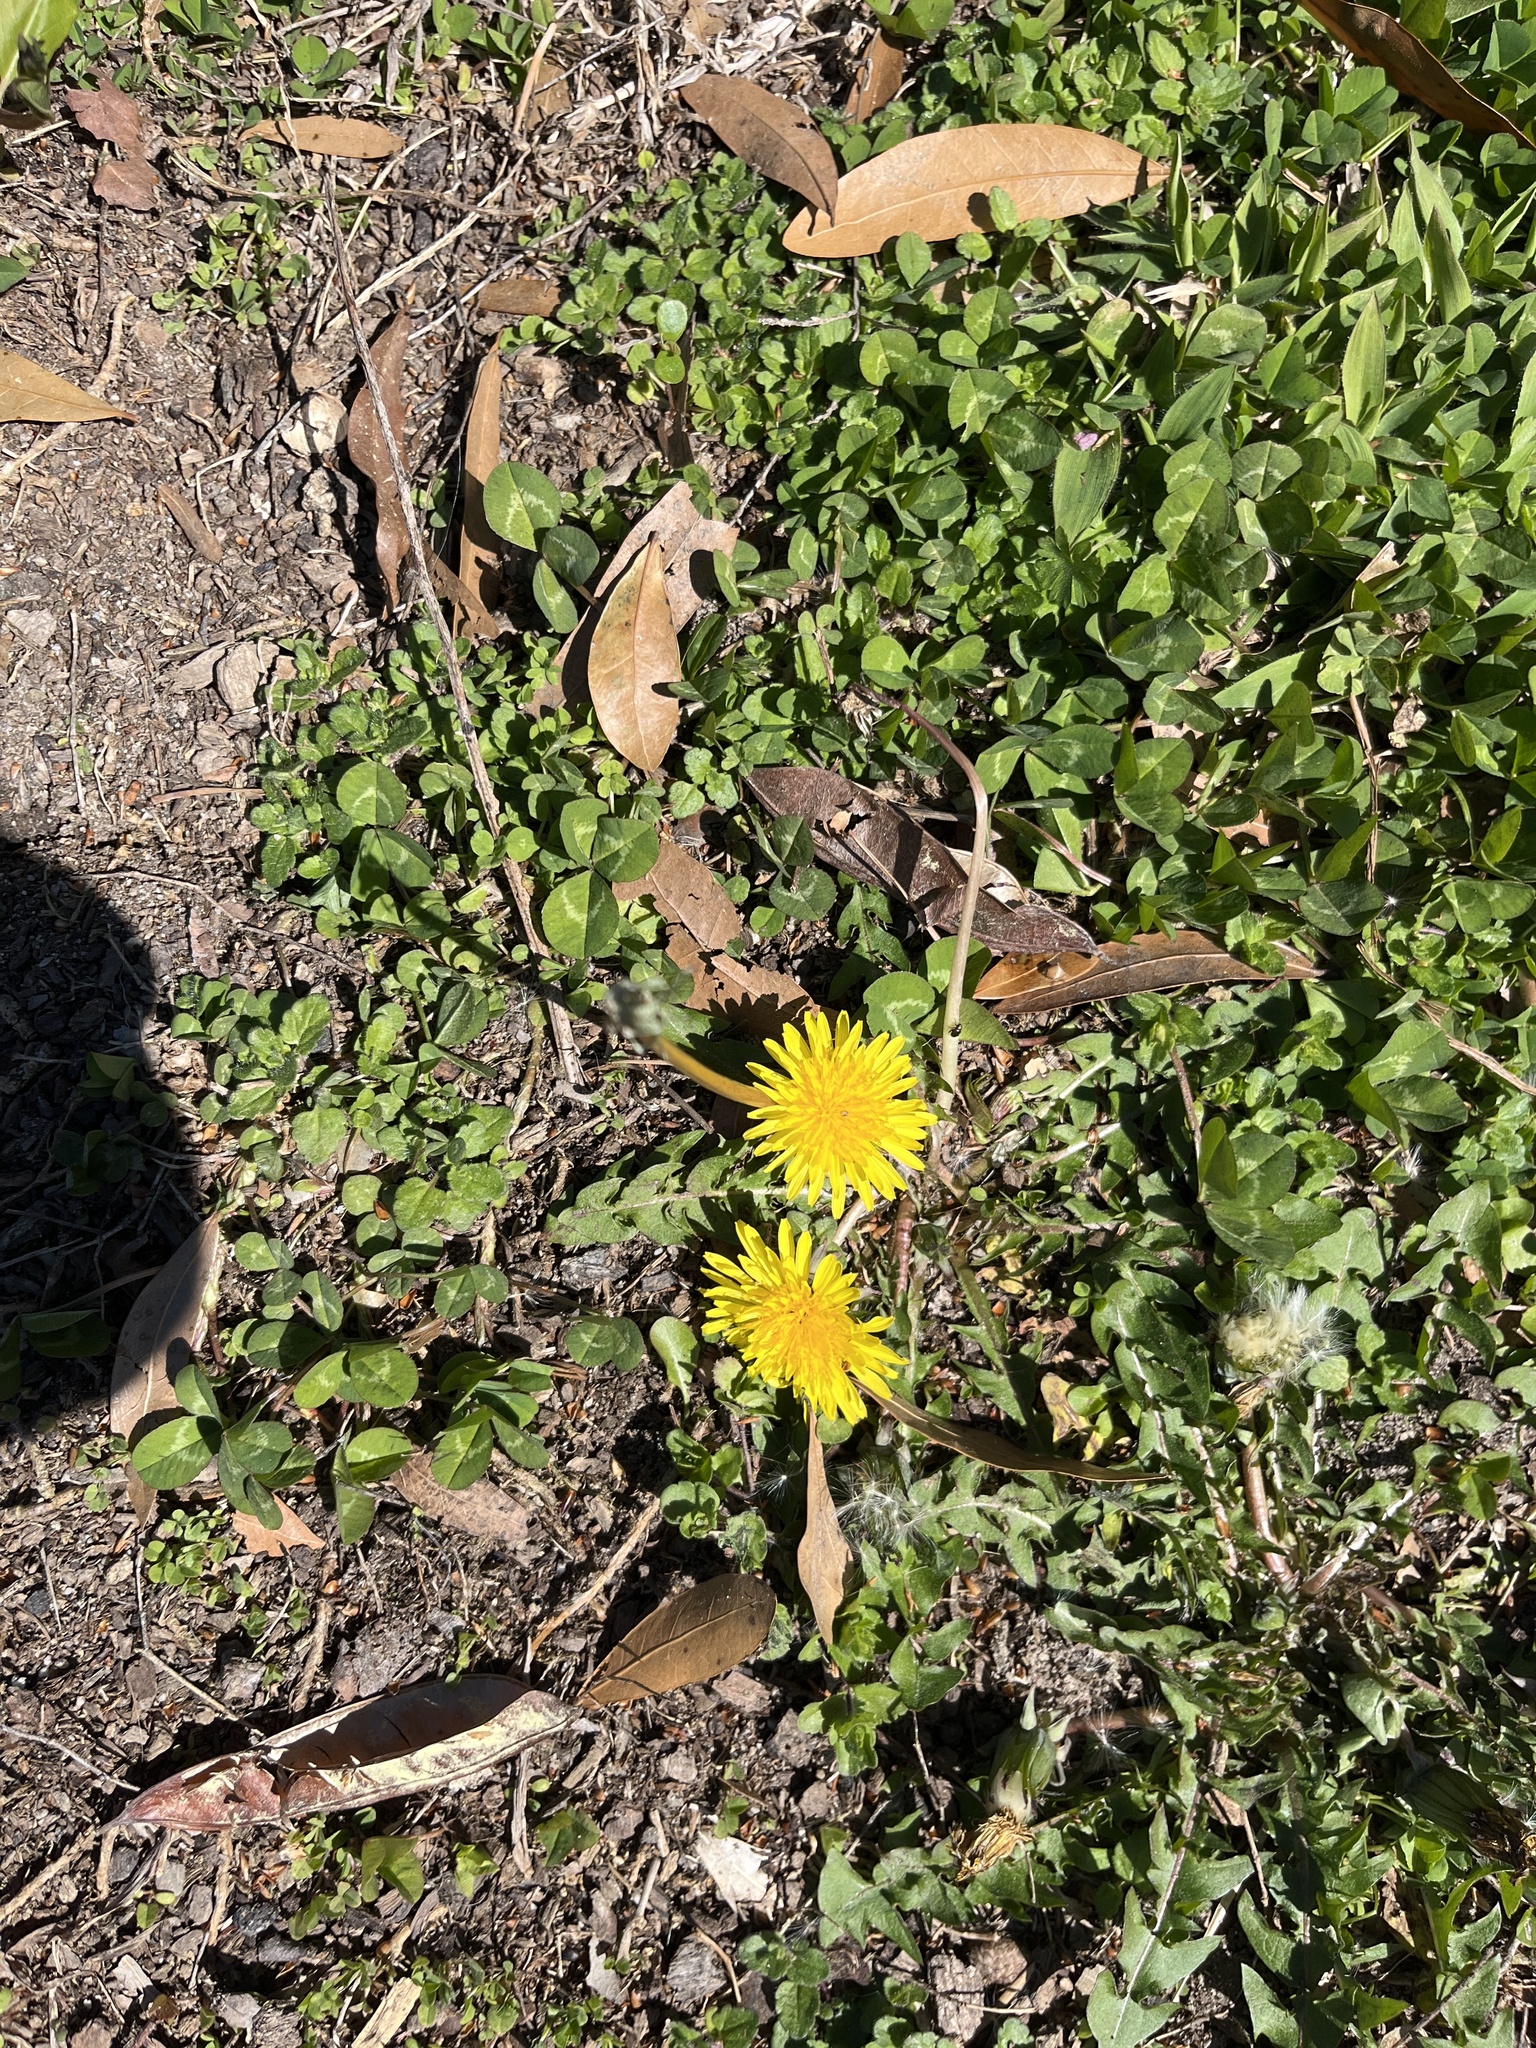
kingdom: Plantae
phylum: Tracheophyta
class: Magnoliopsida
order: Asterales
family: Asteraceae
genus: Taraxacum
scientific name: Taraxacum
